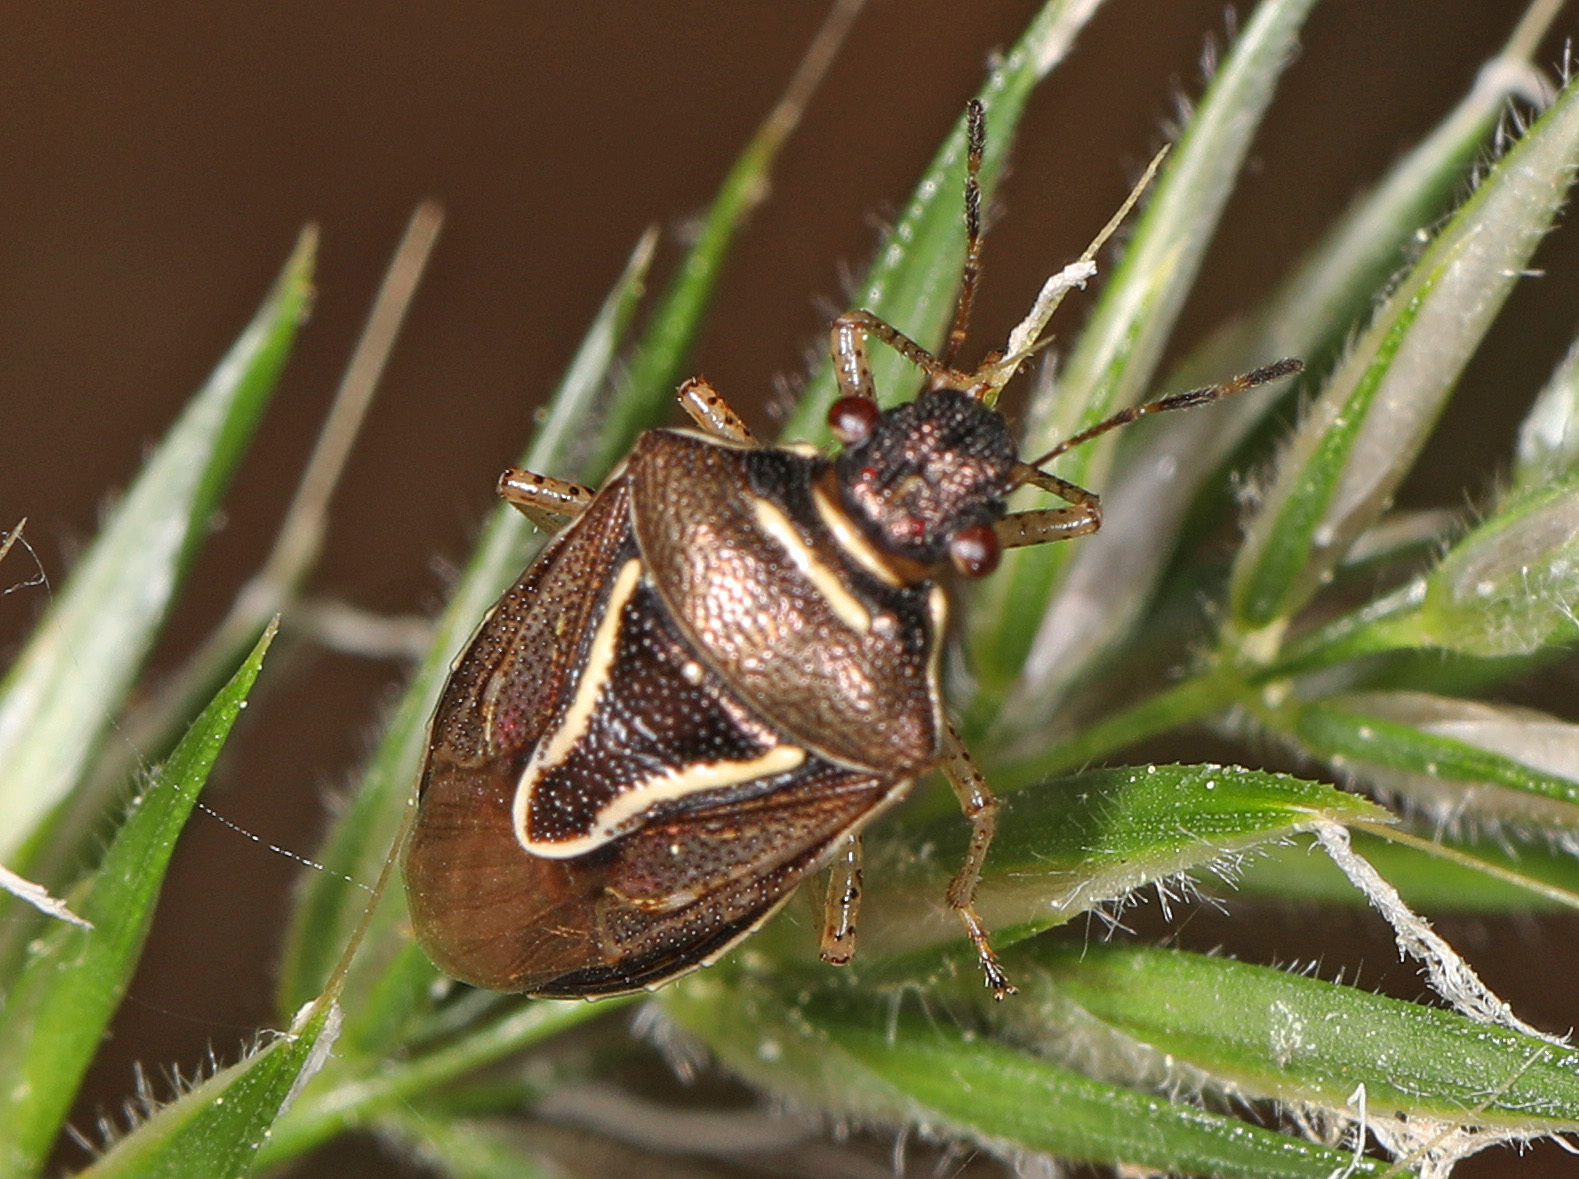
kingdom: Animalia
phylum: Arthropoda
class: Insecta
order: Hemiptera
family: Pentatomidae
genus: Mormidea
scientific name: Mormidea lugens
